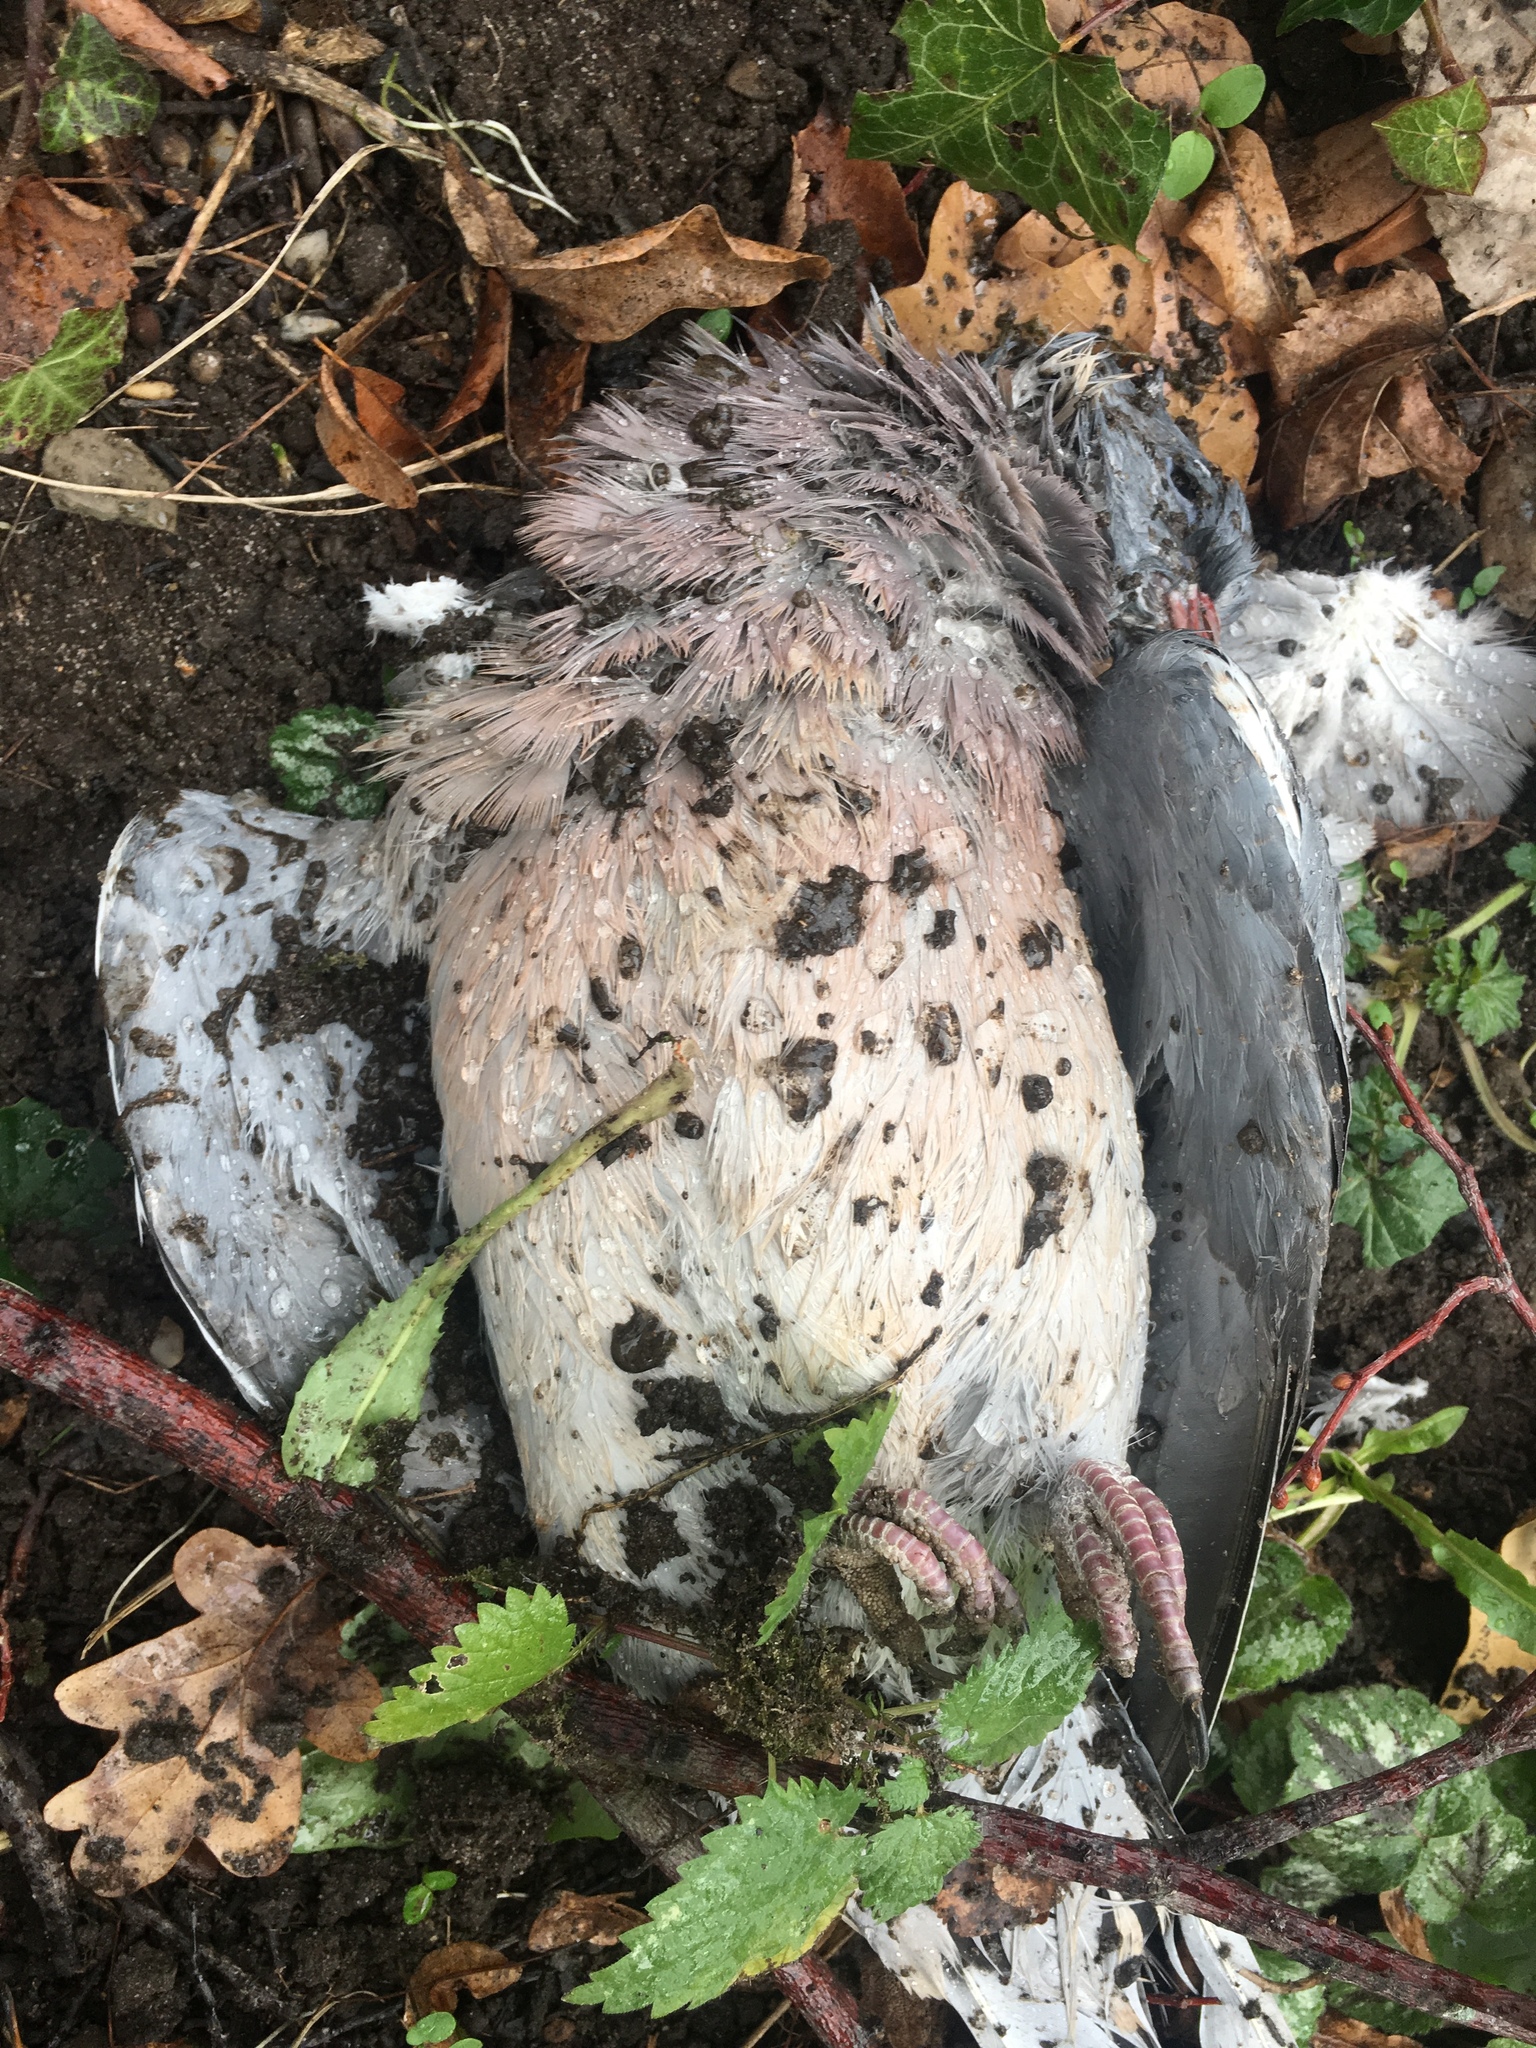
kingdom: Animalia
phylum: Chordata
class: Aves
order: Columbiformes
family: Columbidae
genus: Columba
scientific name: Columba palumbus
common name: Common wood pigeon
